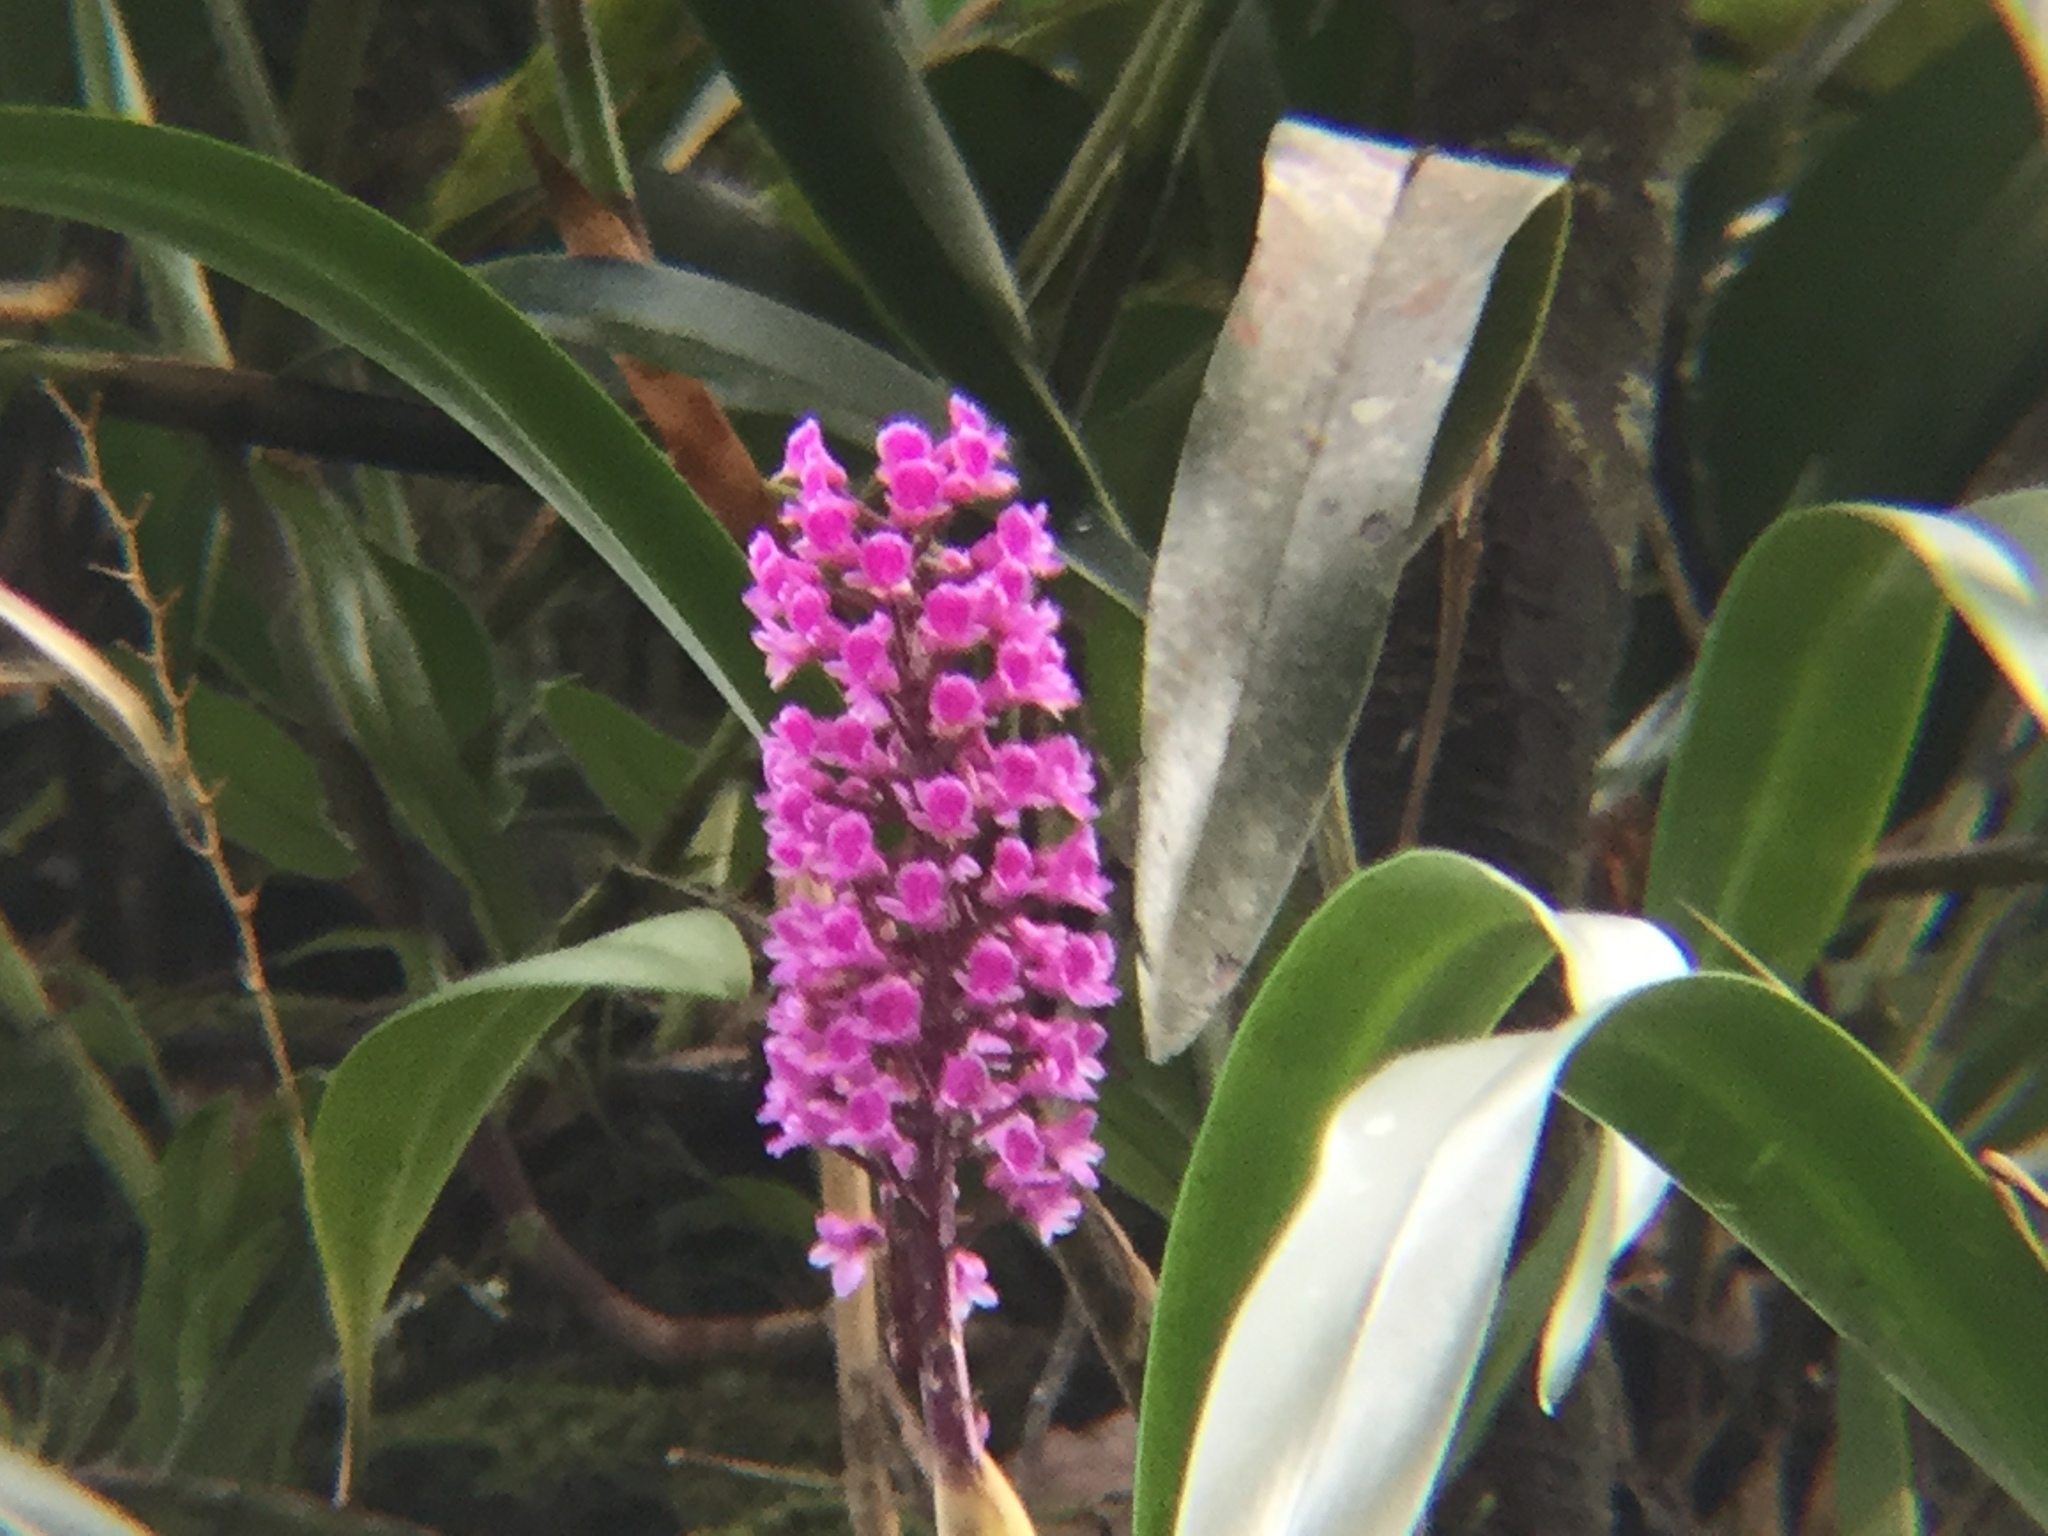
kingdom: Plantae
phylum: Tracheophyta
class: Liliopsida
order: Asparagales
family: Orchidaceae
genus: Arpophyllum
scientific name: Arpophyllum giganteum
